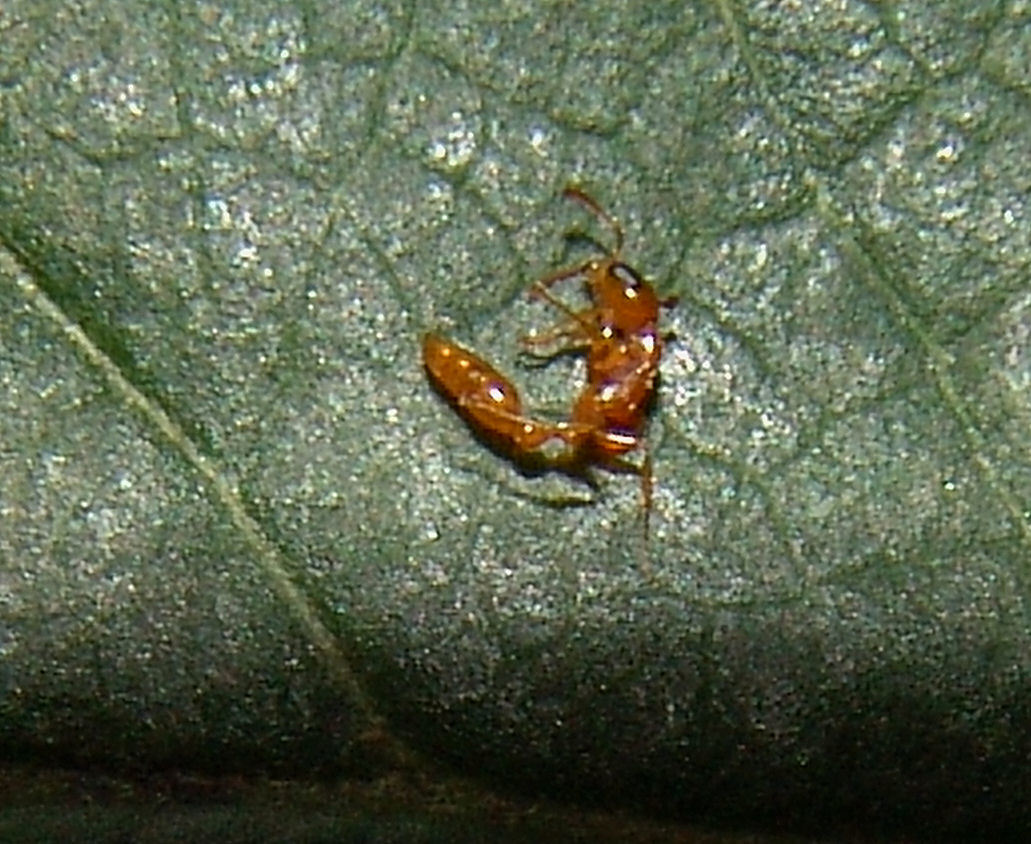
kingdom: Animalia
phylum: Arthropoda
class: Insecta
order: Hymenoptera
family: Formicidae
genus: Pseudomyrmex
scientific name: Pseudomyrmex pallidus
